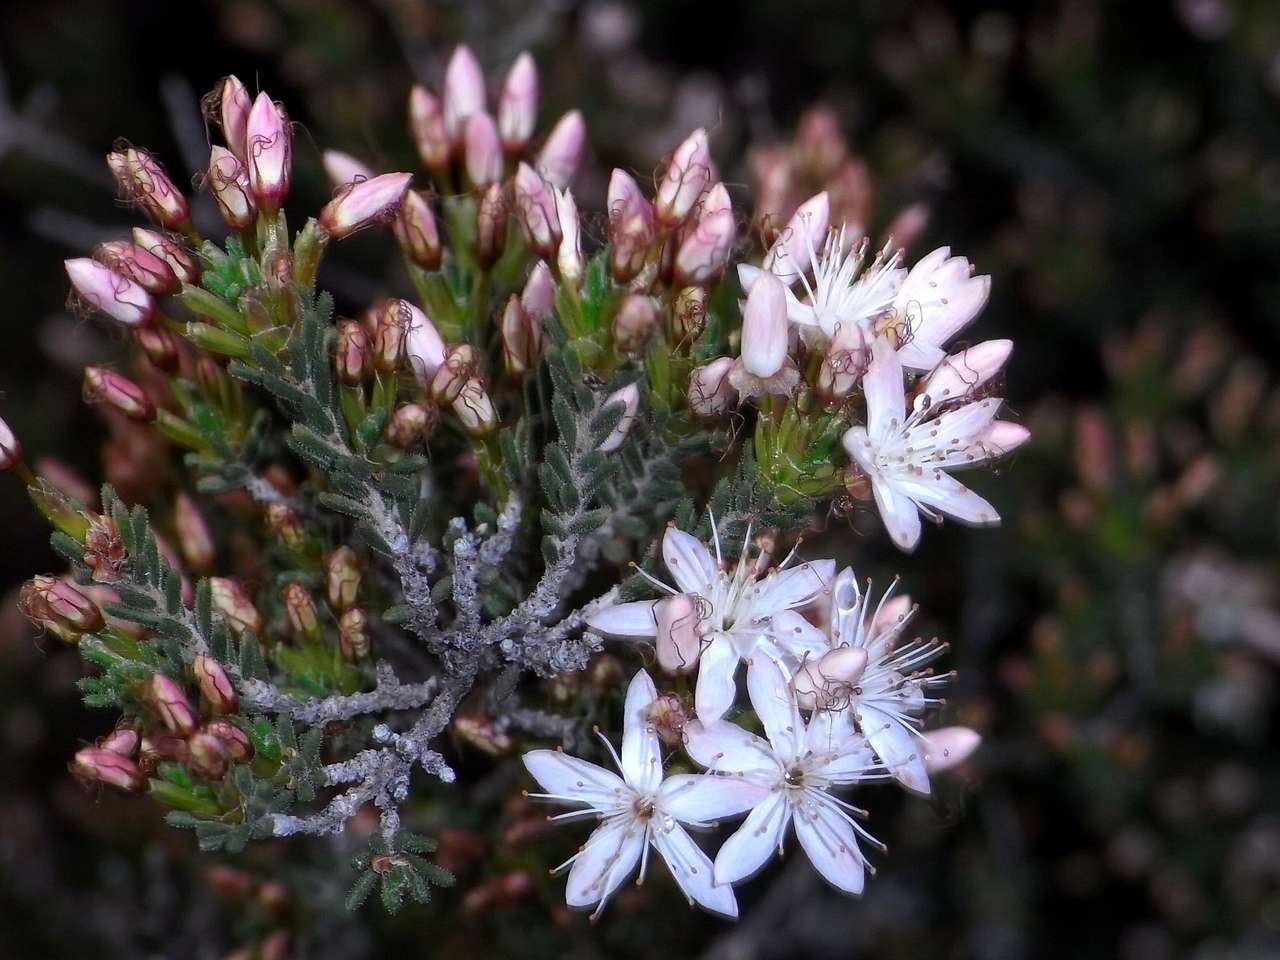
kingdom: Plantae
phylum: Tracheophyta
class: Magnoliopsida
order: Myrtales
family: Myrtaceae
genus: Calytrix
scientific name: Calytrix tetragona
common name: Common fringe myrtle
